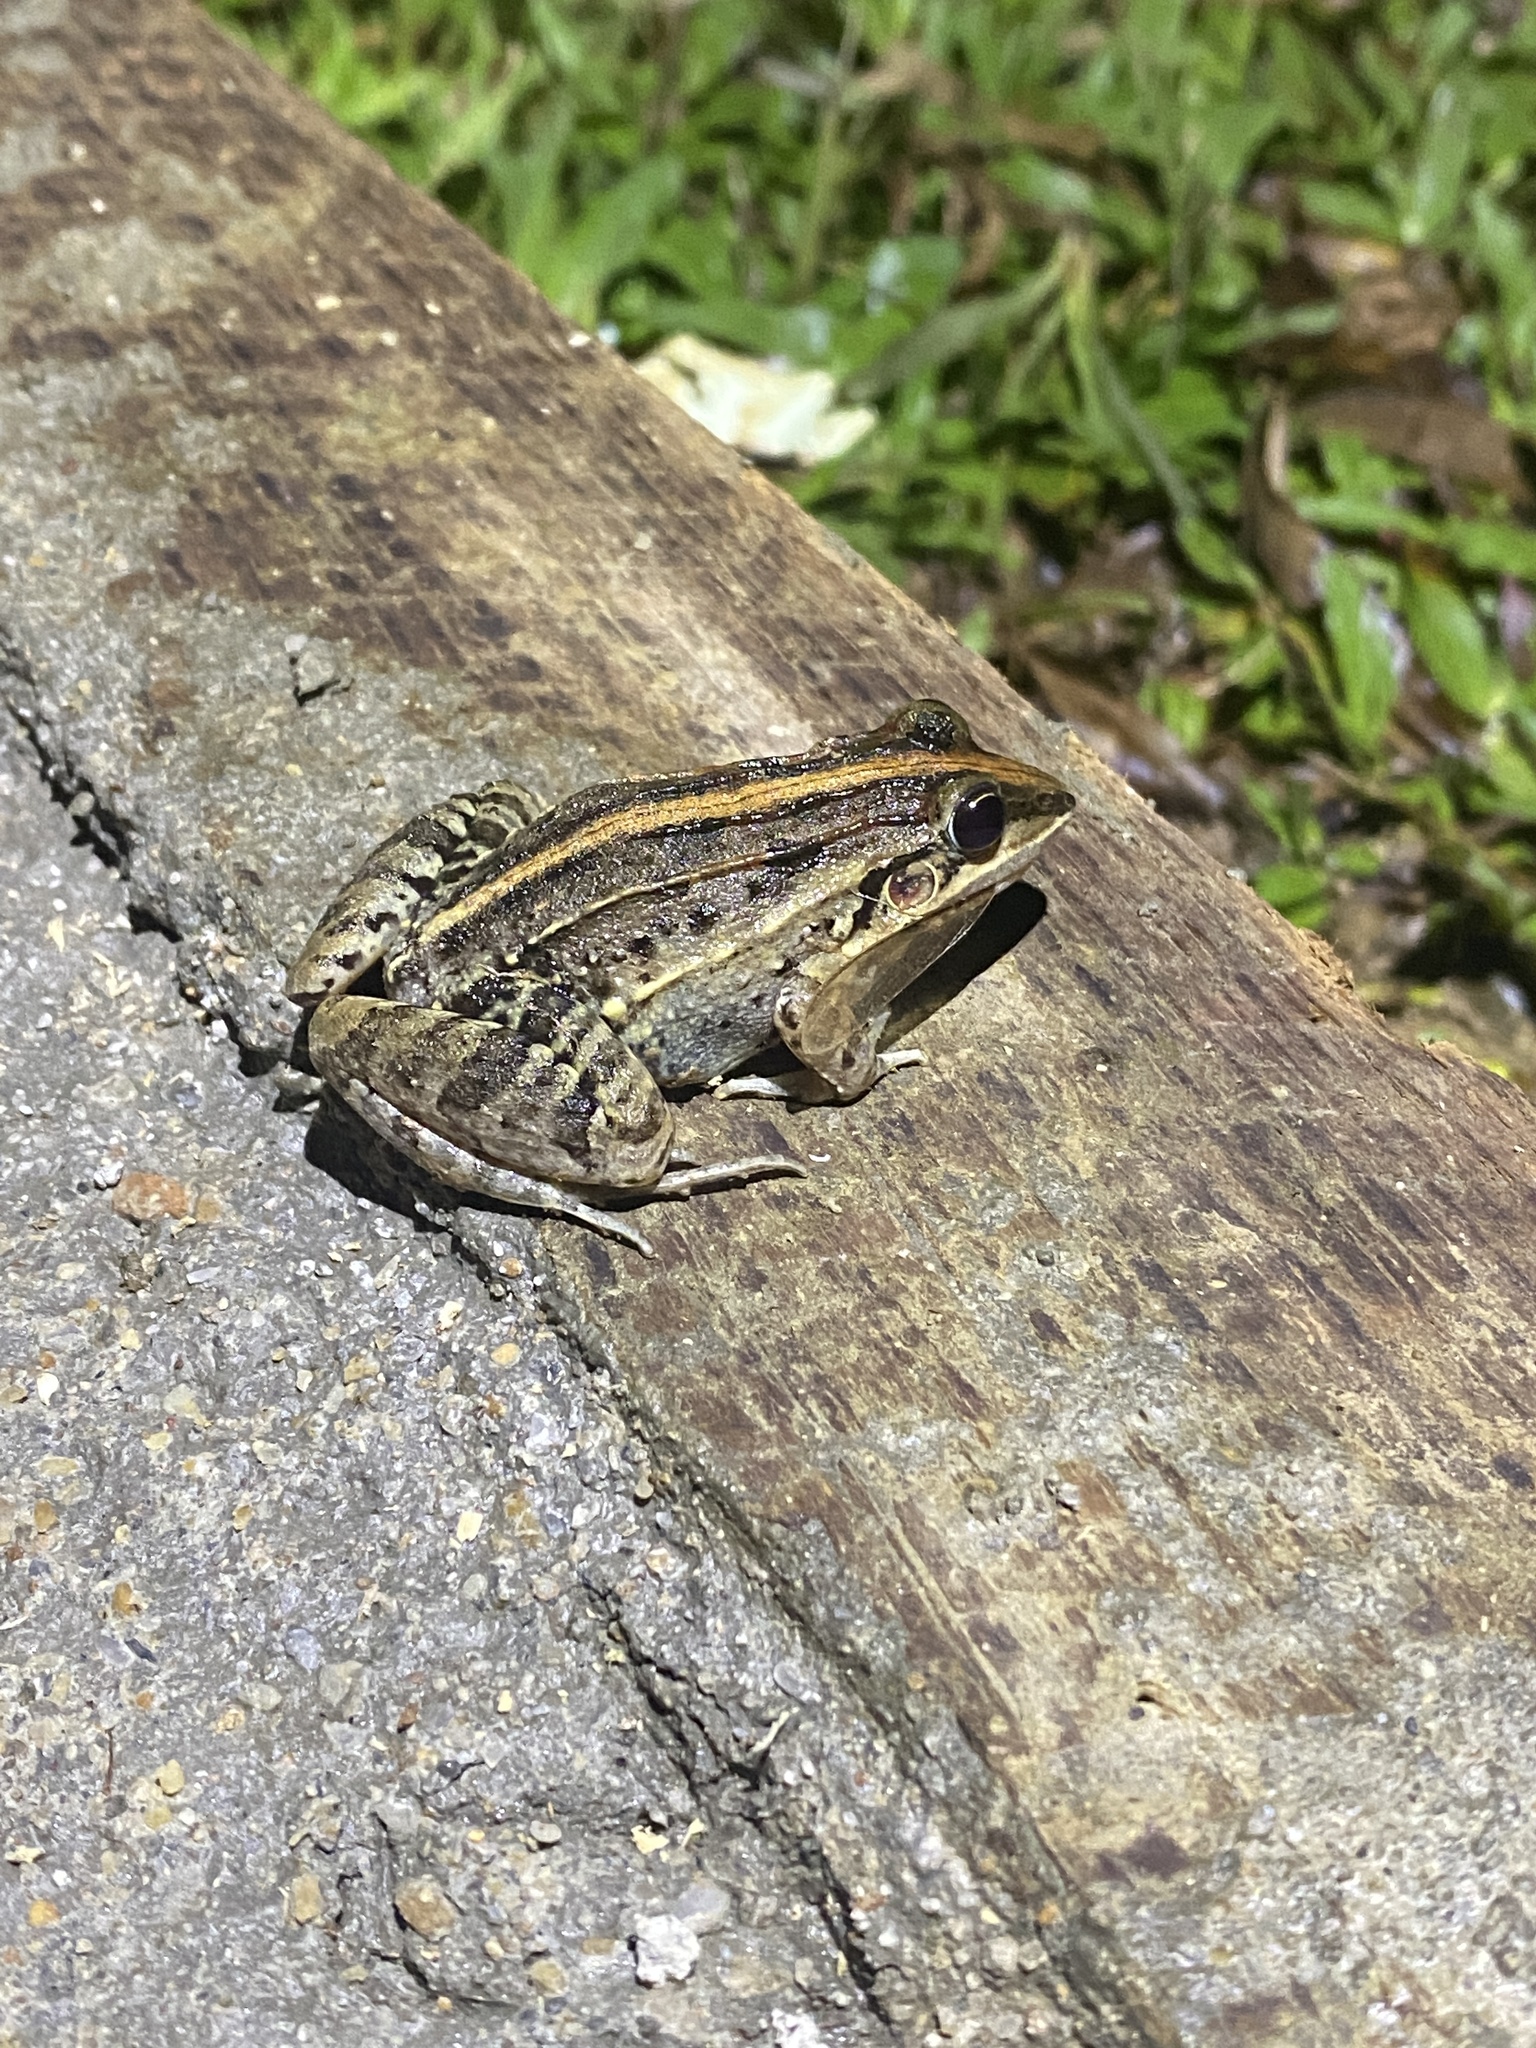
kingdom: Animalia
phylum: Chordata
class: Amphibia
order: Anura
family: Leptodactylidae
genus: Leptodactylus
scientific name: Leptodactylus fuscus
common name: Rufous frog
